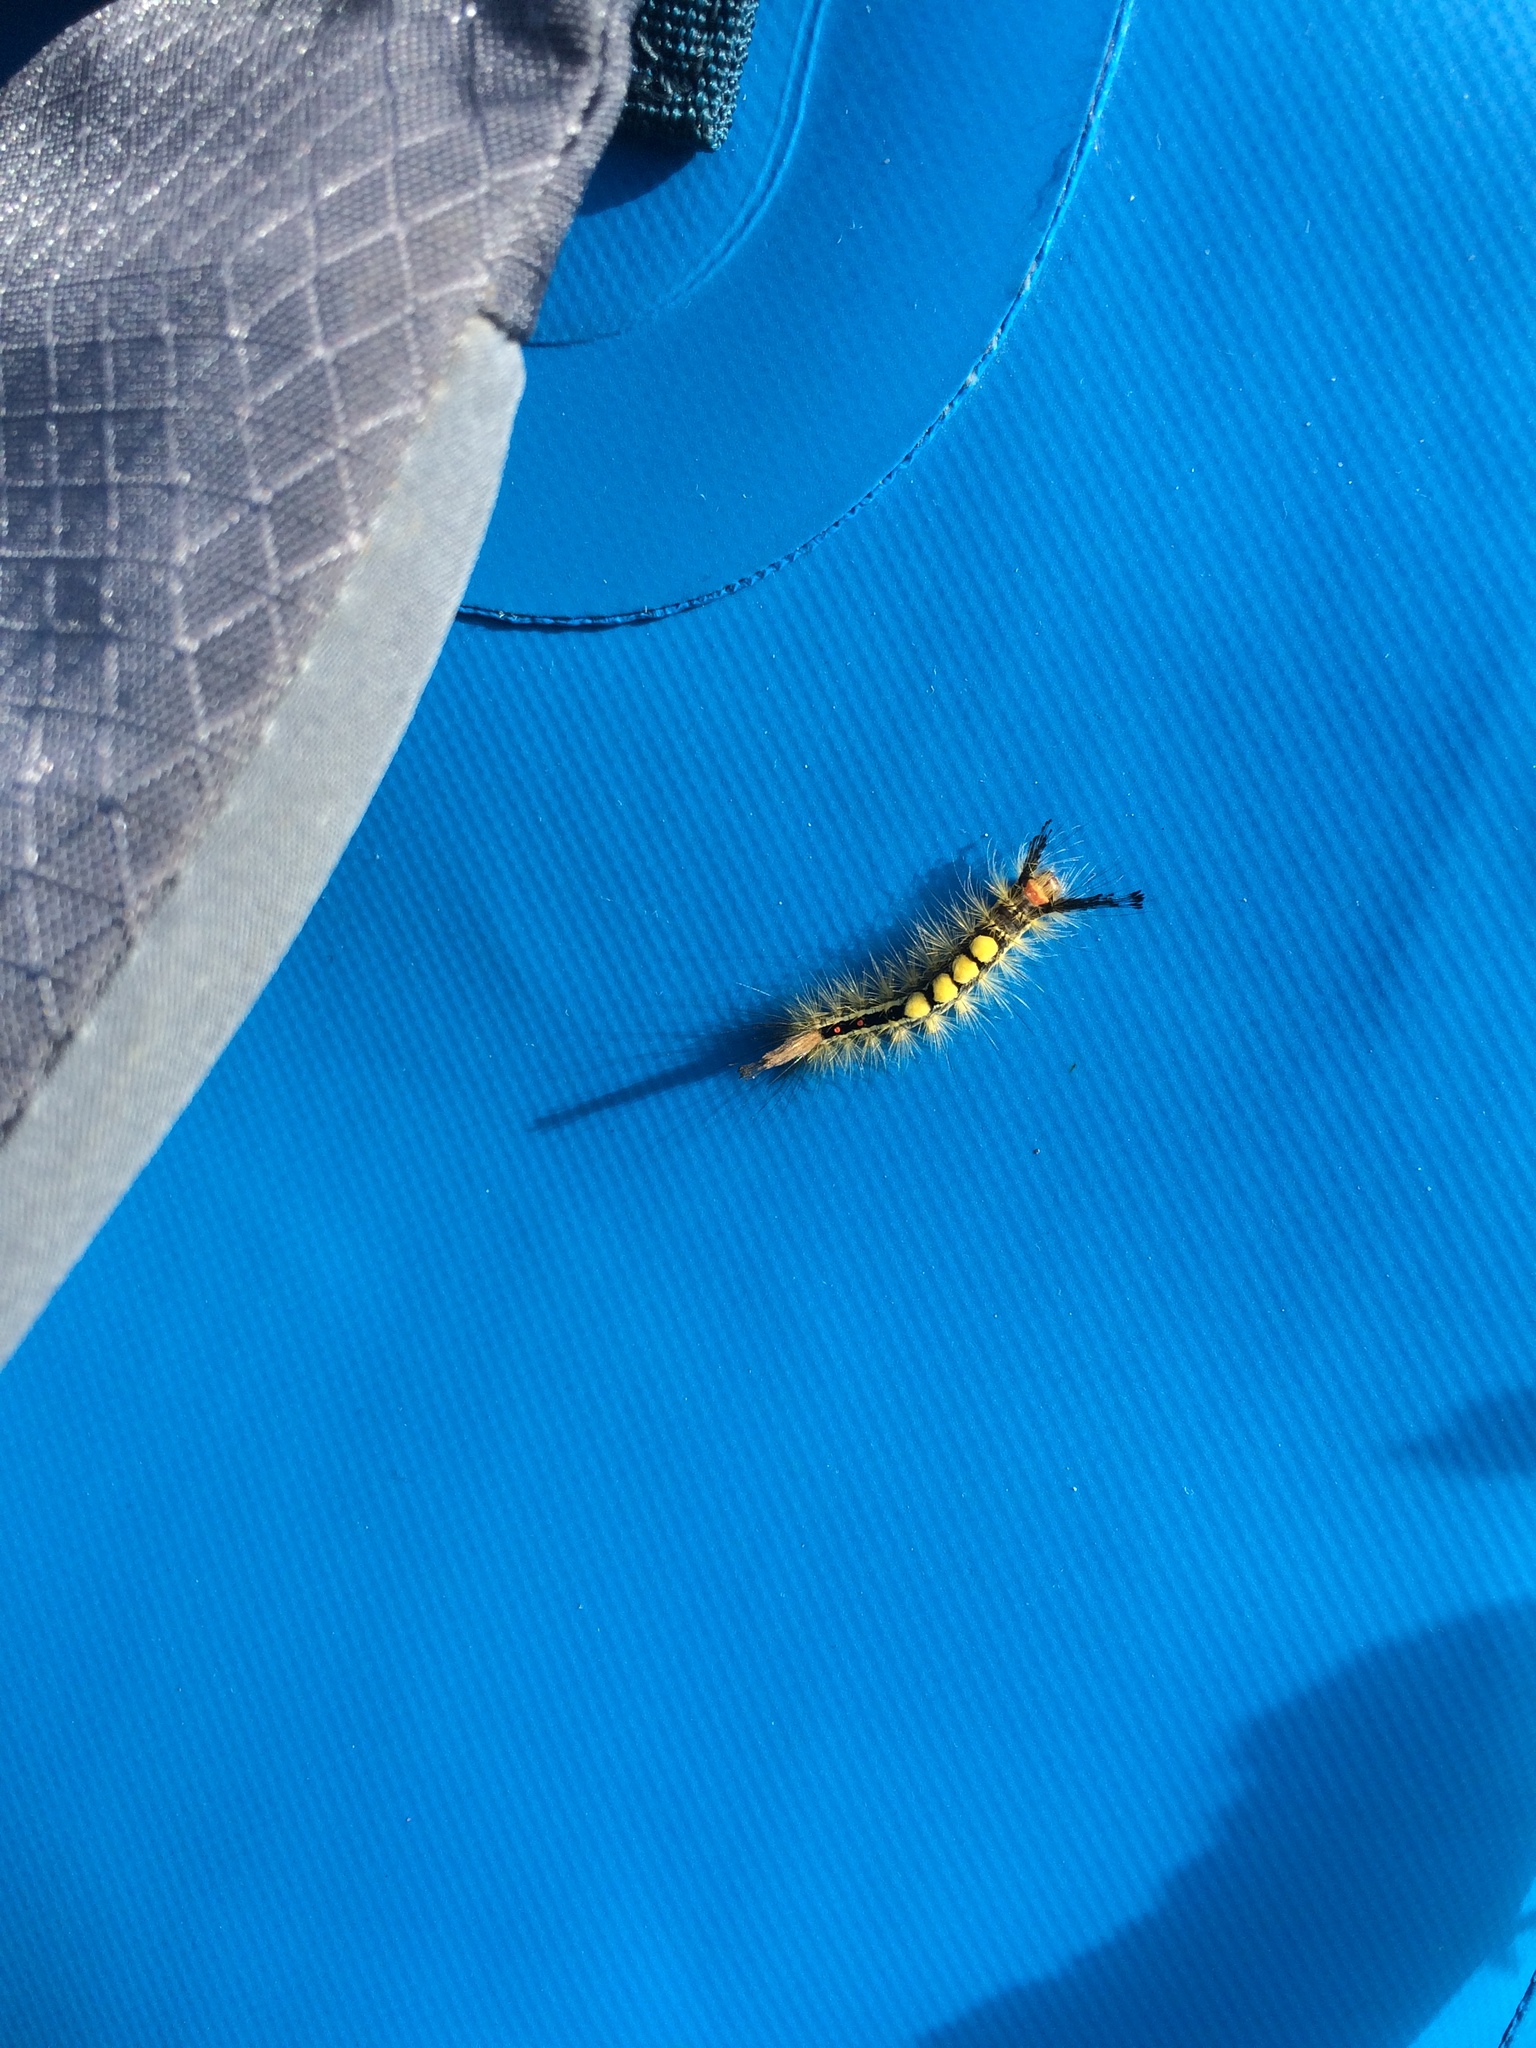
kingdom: Animalia
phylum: Arthropoda
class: Insecta
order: Lepidoptera
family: Erebidae
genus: Orgyia
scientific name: Orgyia leucostigma
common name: White-marked tussock moth
